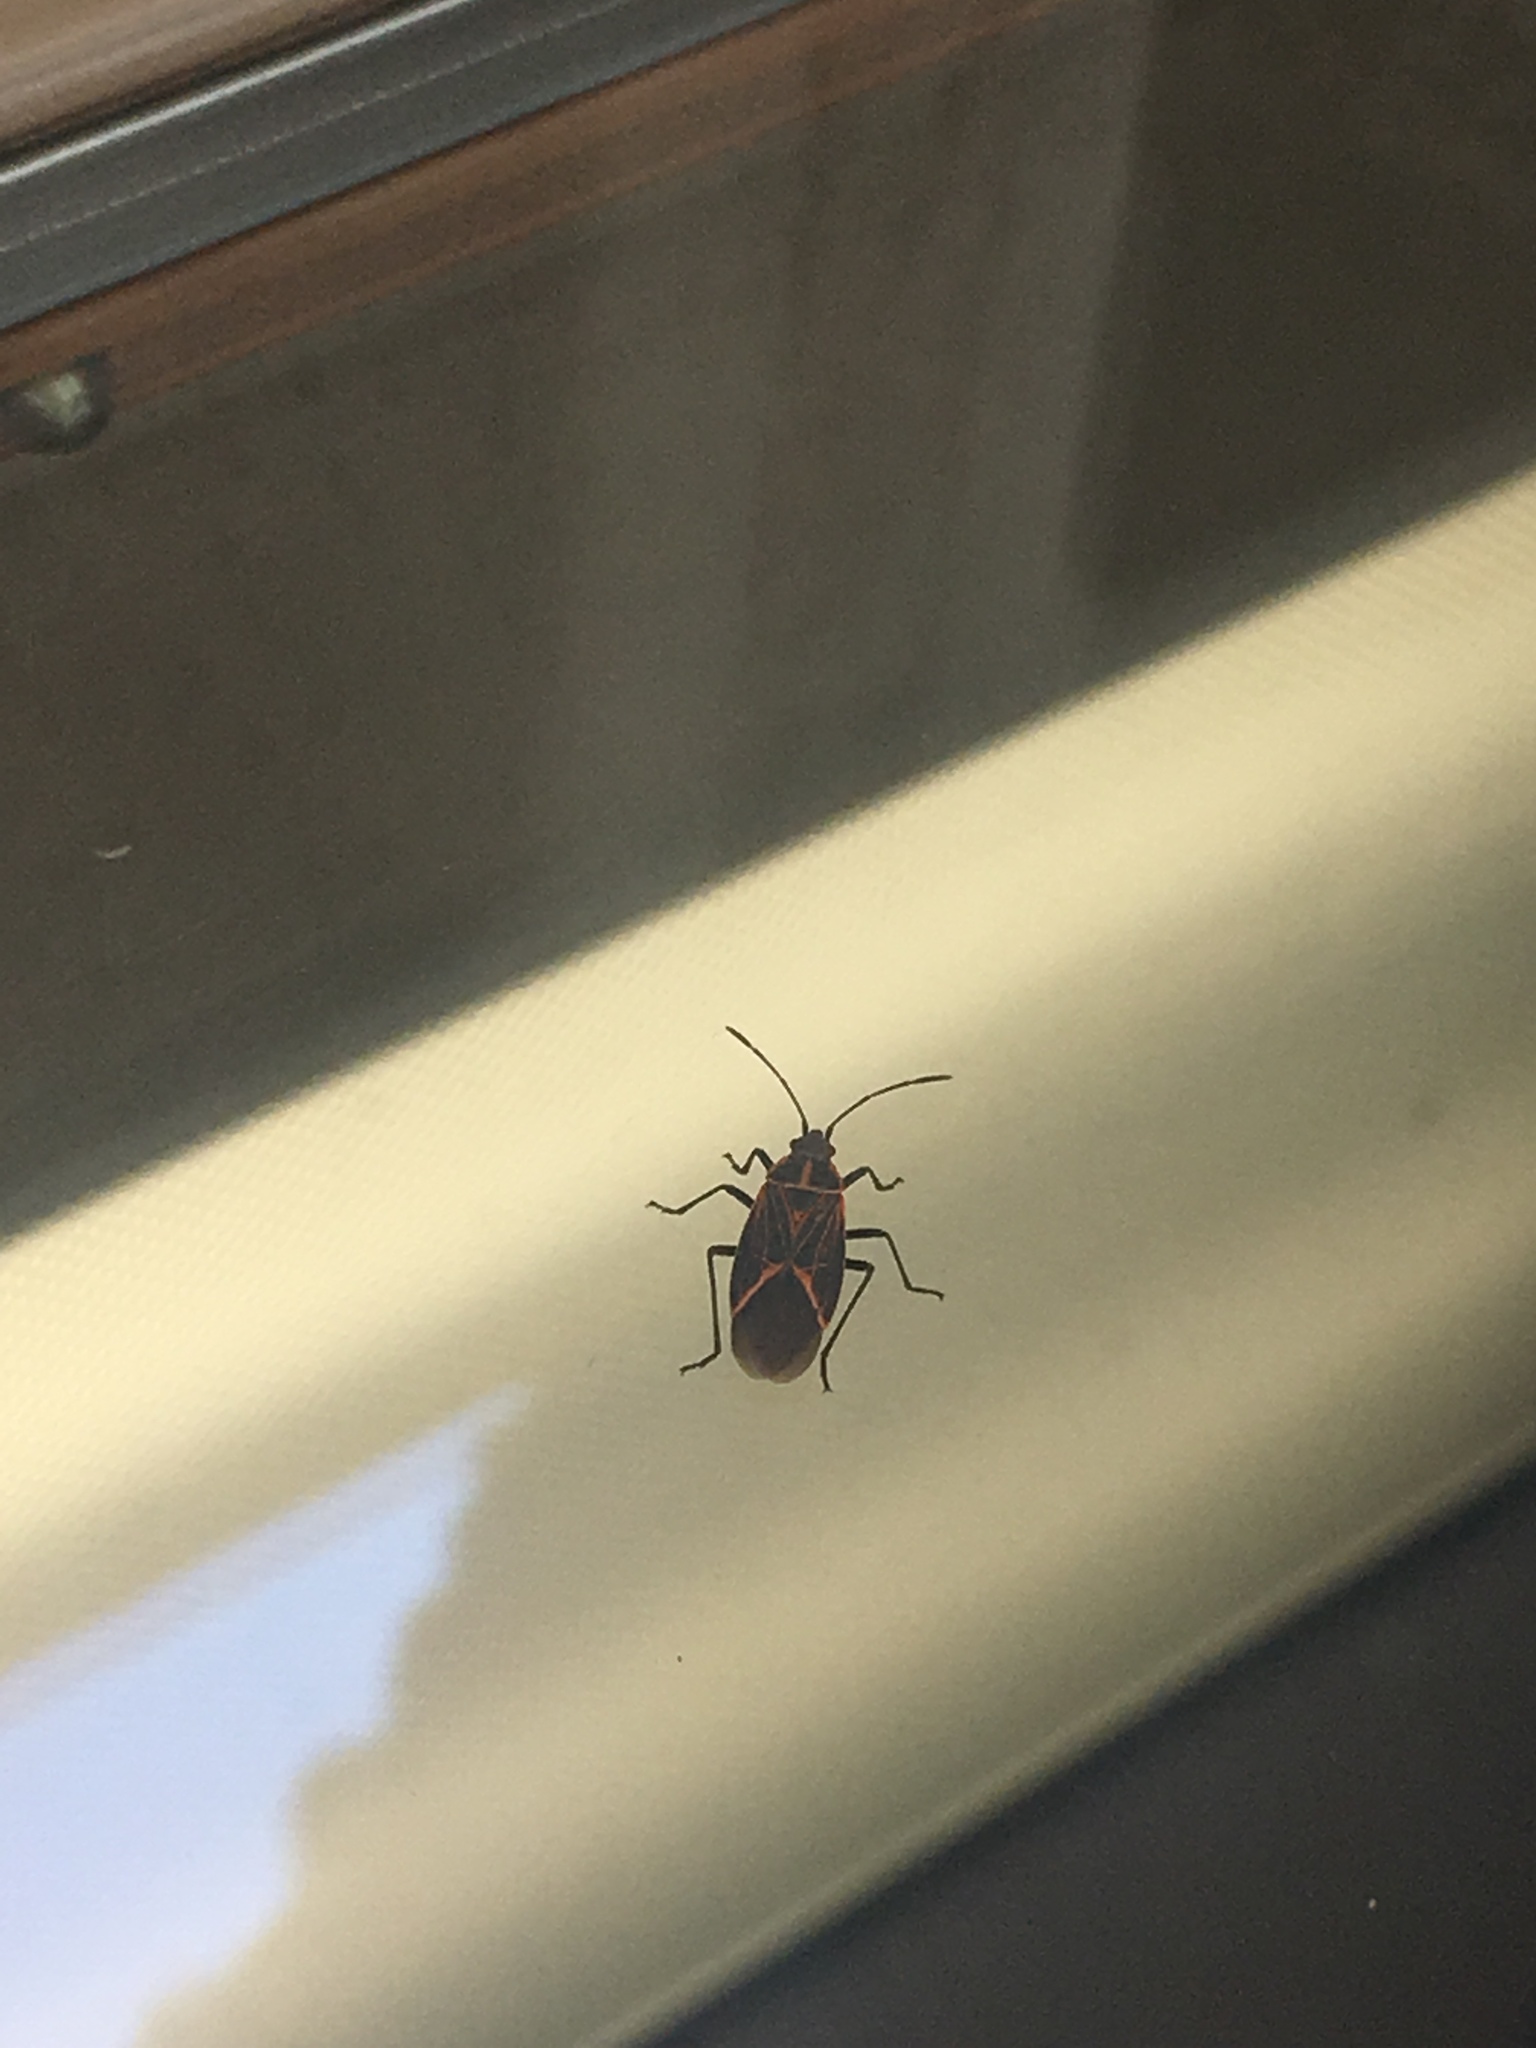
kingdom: Animalia
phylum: Arthropoda
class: Insecta
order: Hemiptera
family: Rhopalidae
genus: Boisea
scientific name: Boisea rubrolineata
